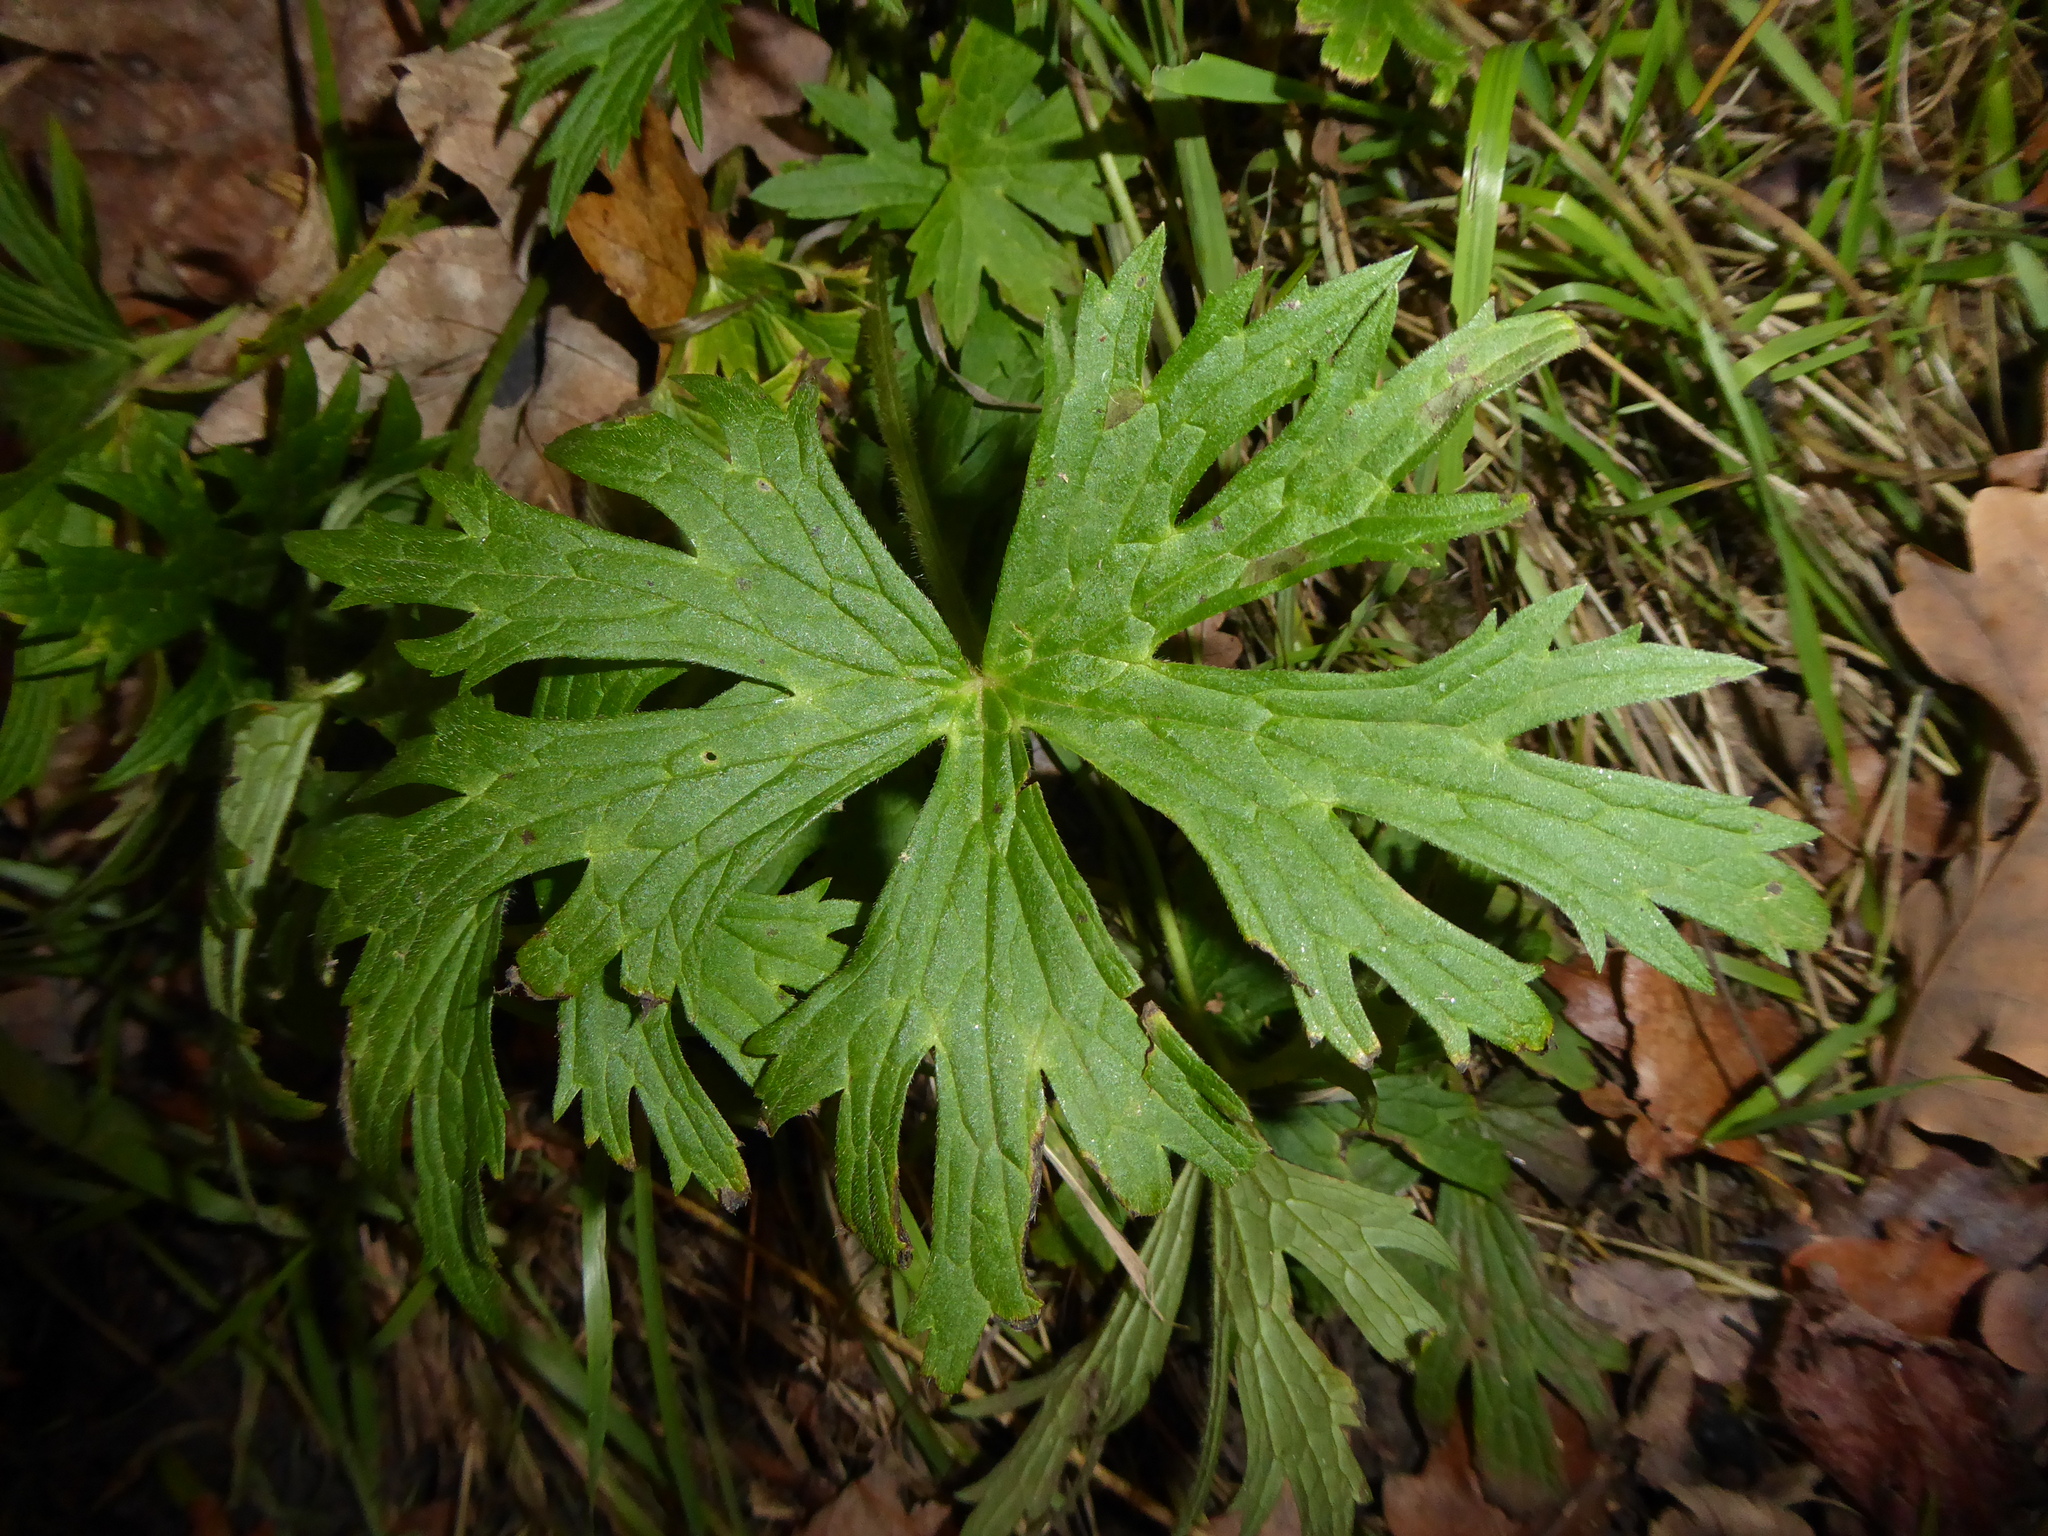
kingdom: Plantae
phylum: Tracheophyta
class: Magnoliopsida
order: Ranunculales
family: Ranunculaceae
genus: Ranunculus
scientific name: Ranunculus acris
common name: Meadow buttercup
